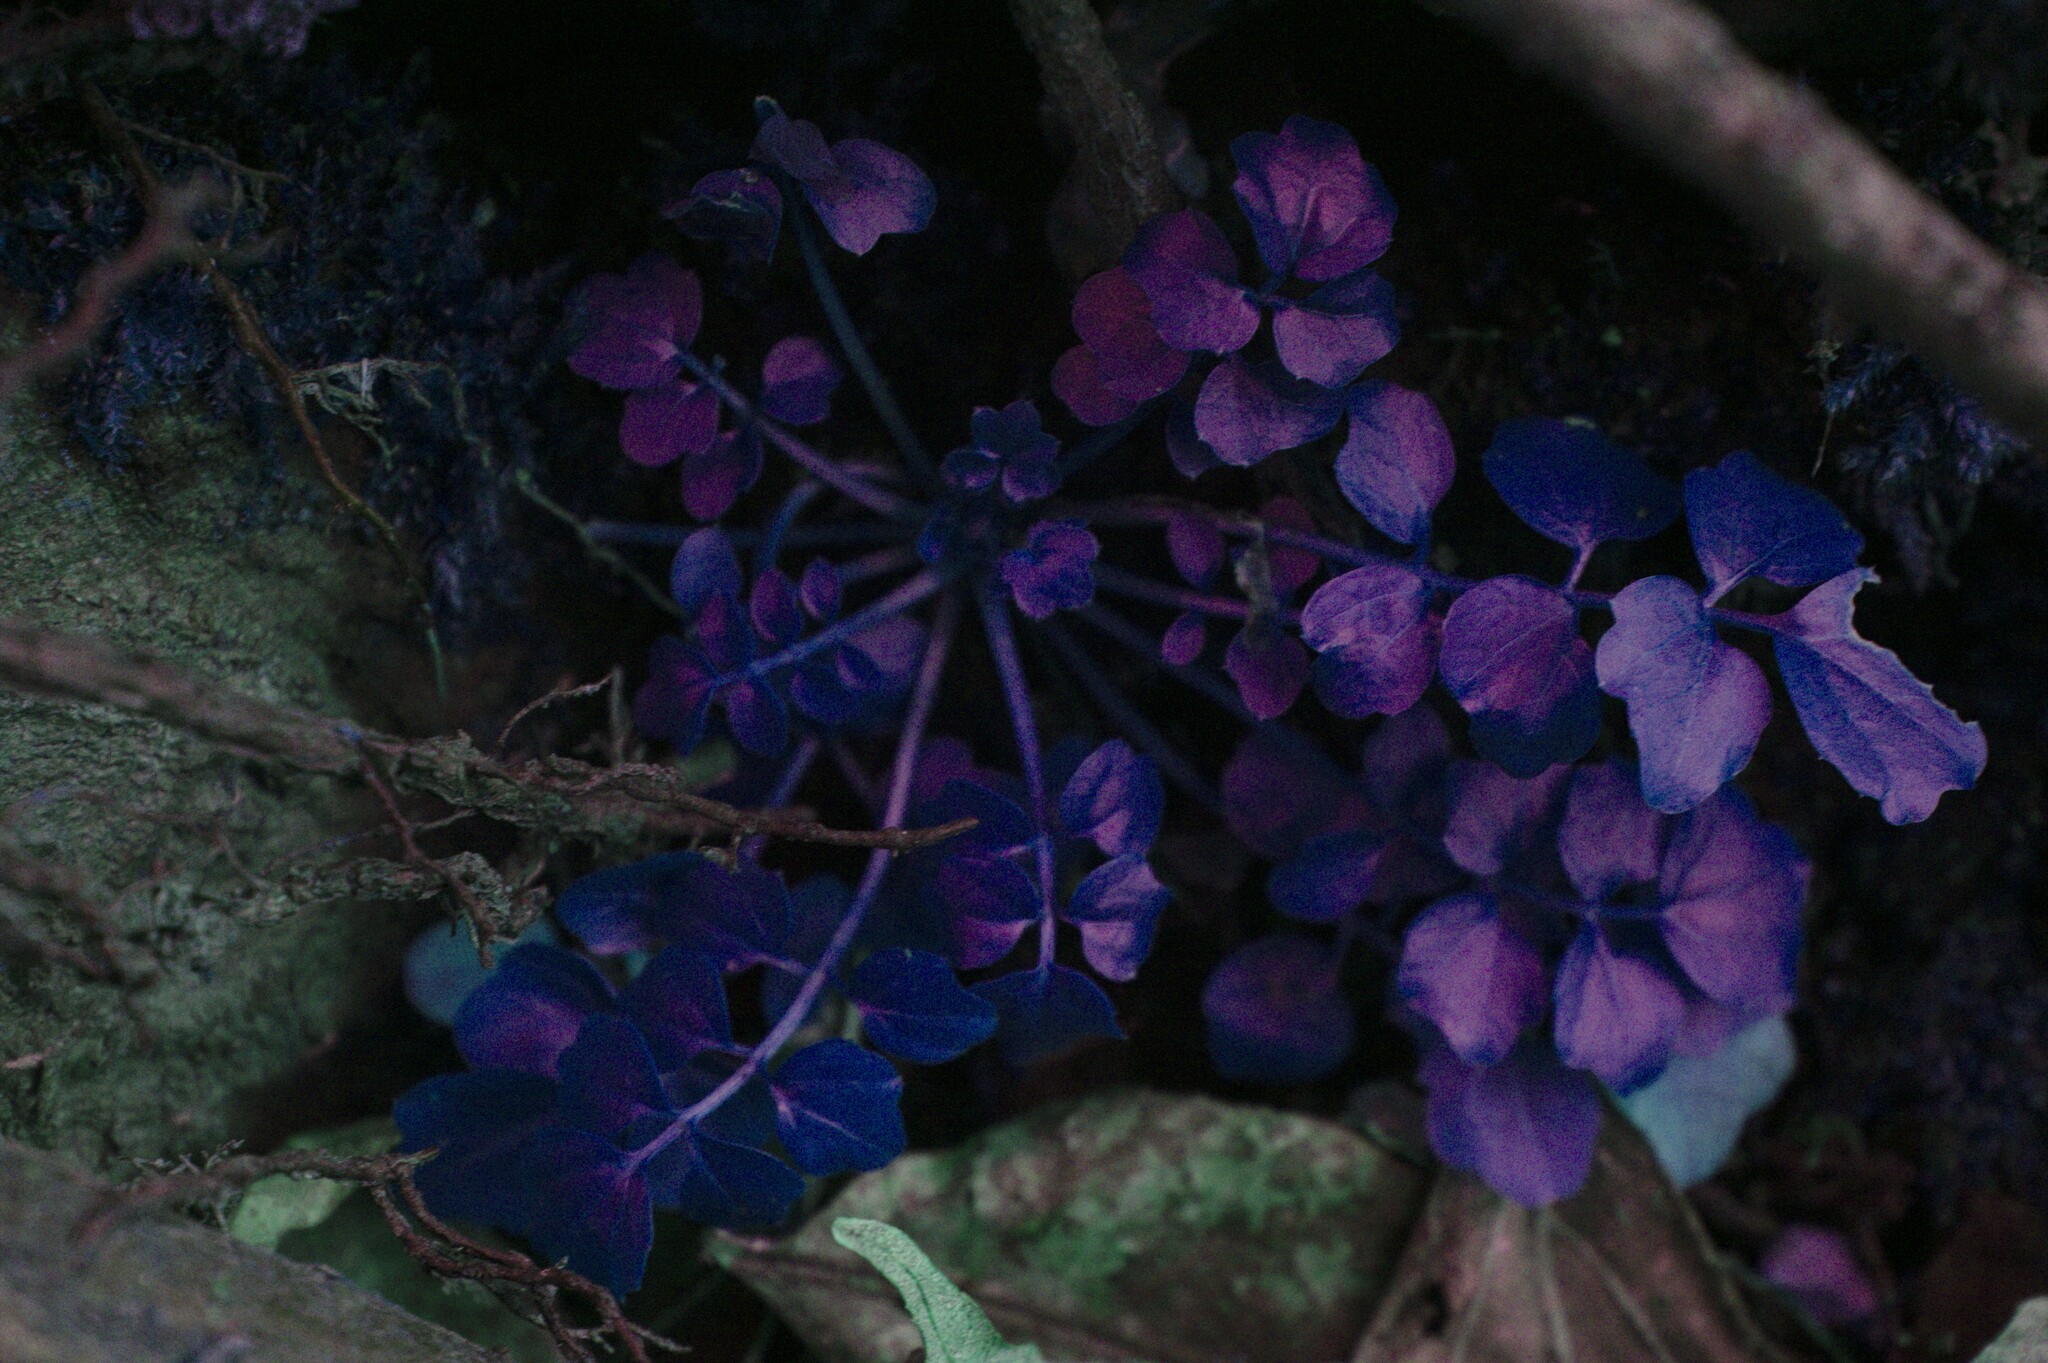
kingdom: Plantae
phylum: Tracheophyta
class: Magnoliopsida
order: Brassicales
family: Brassicaceae
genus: Cardamine
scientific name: Cardamine pensylvanica
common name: Pennsylvania bittercress
